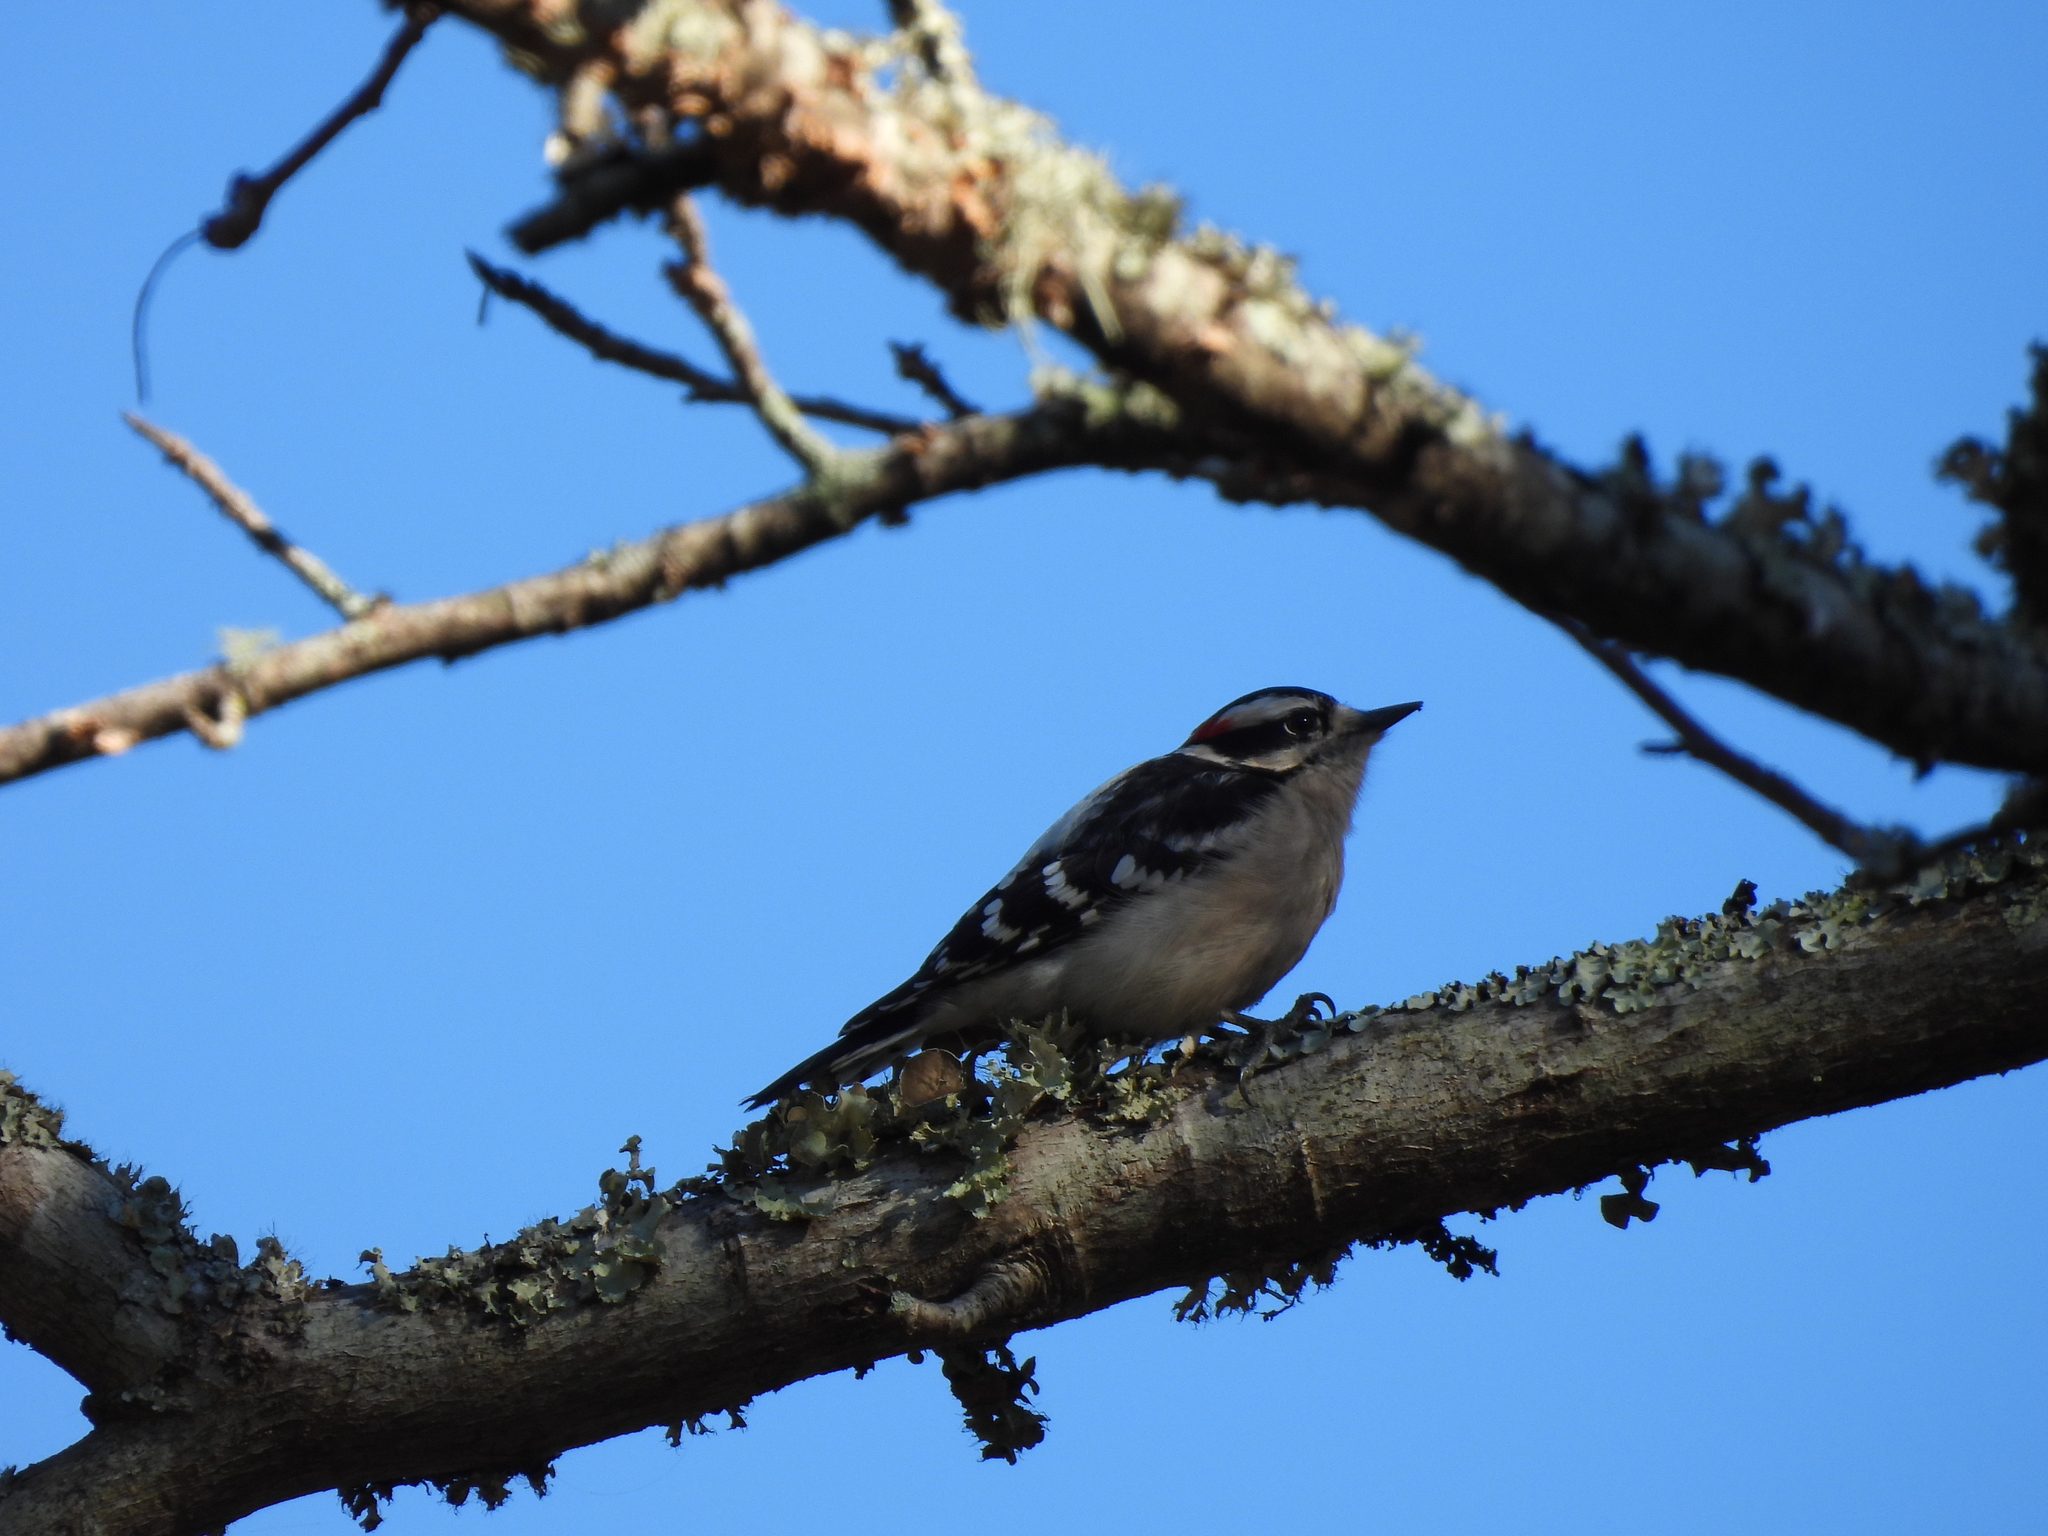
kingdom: Animalia
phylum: Chordata
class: Aves
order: Piciformes
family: Picidae
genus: Dryobates
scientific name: Dryobates pubescens
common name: Downy woodpecker
